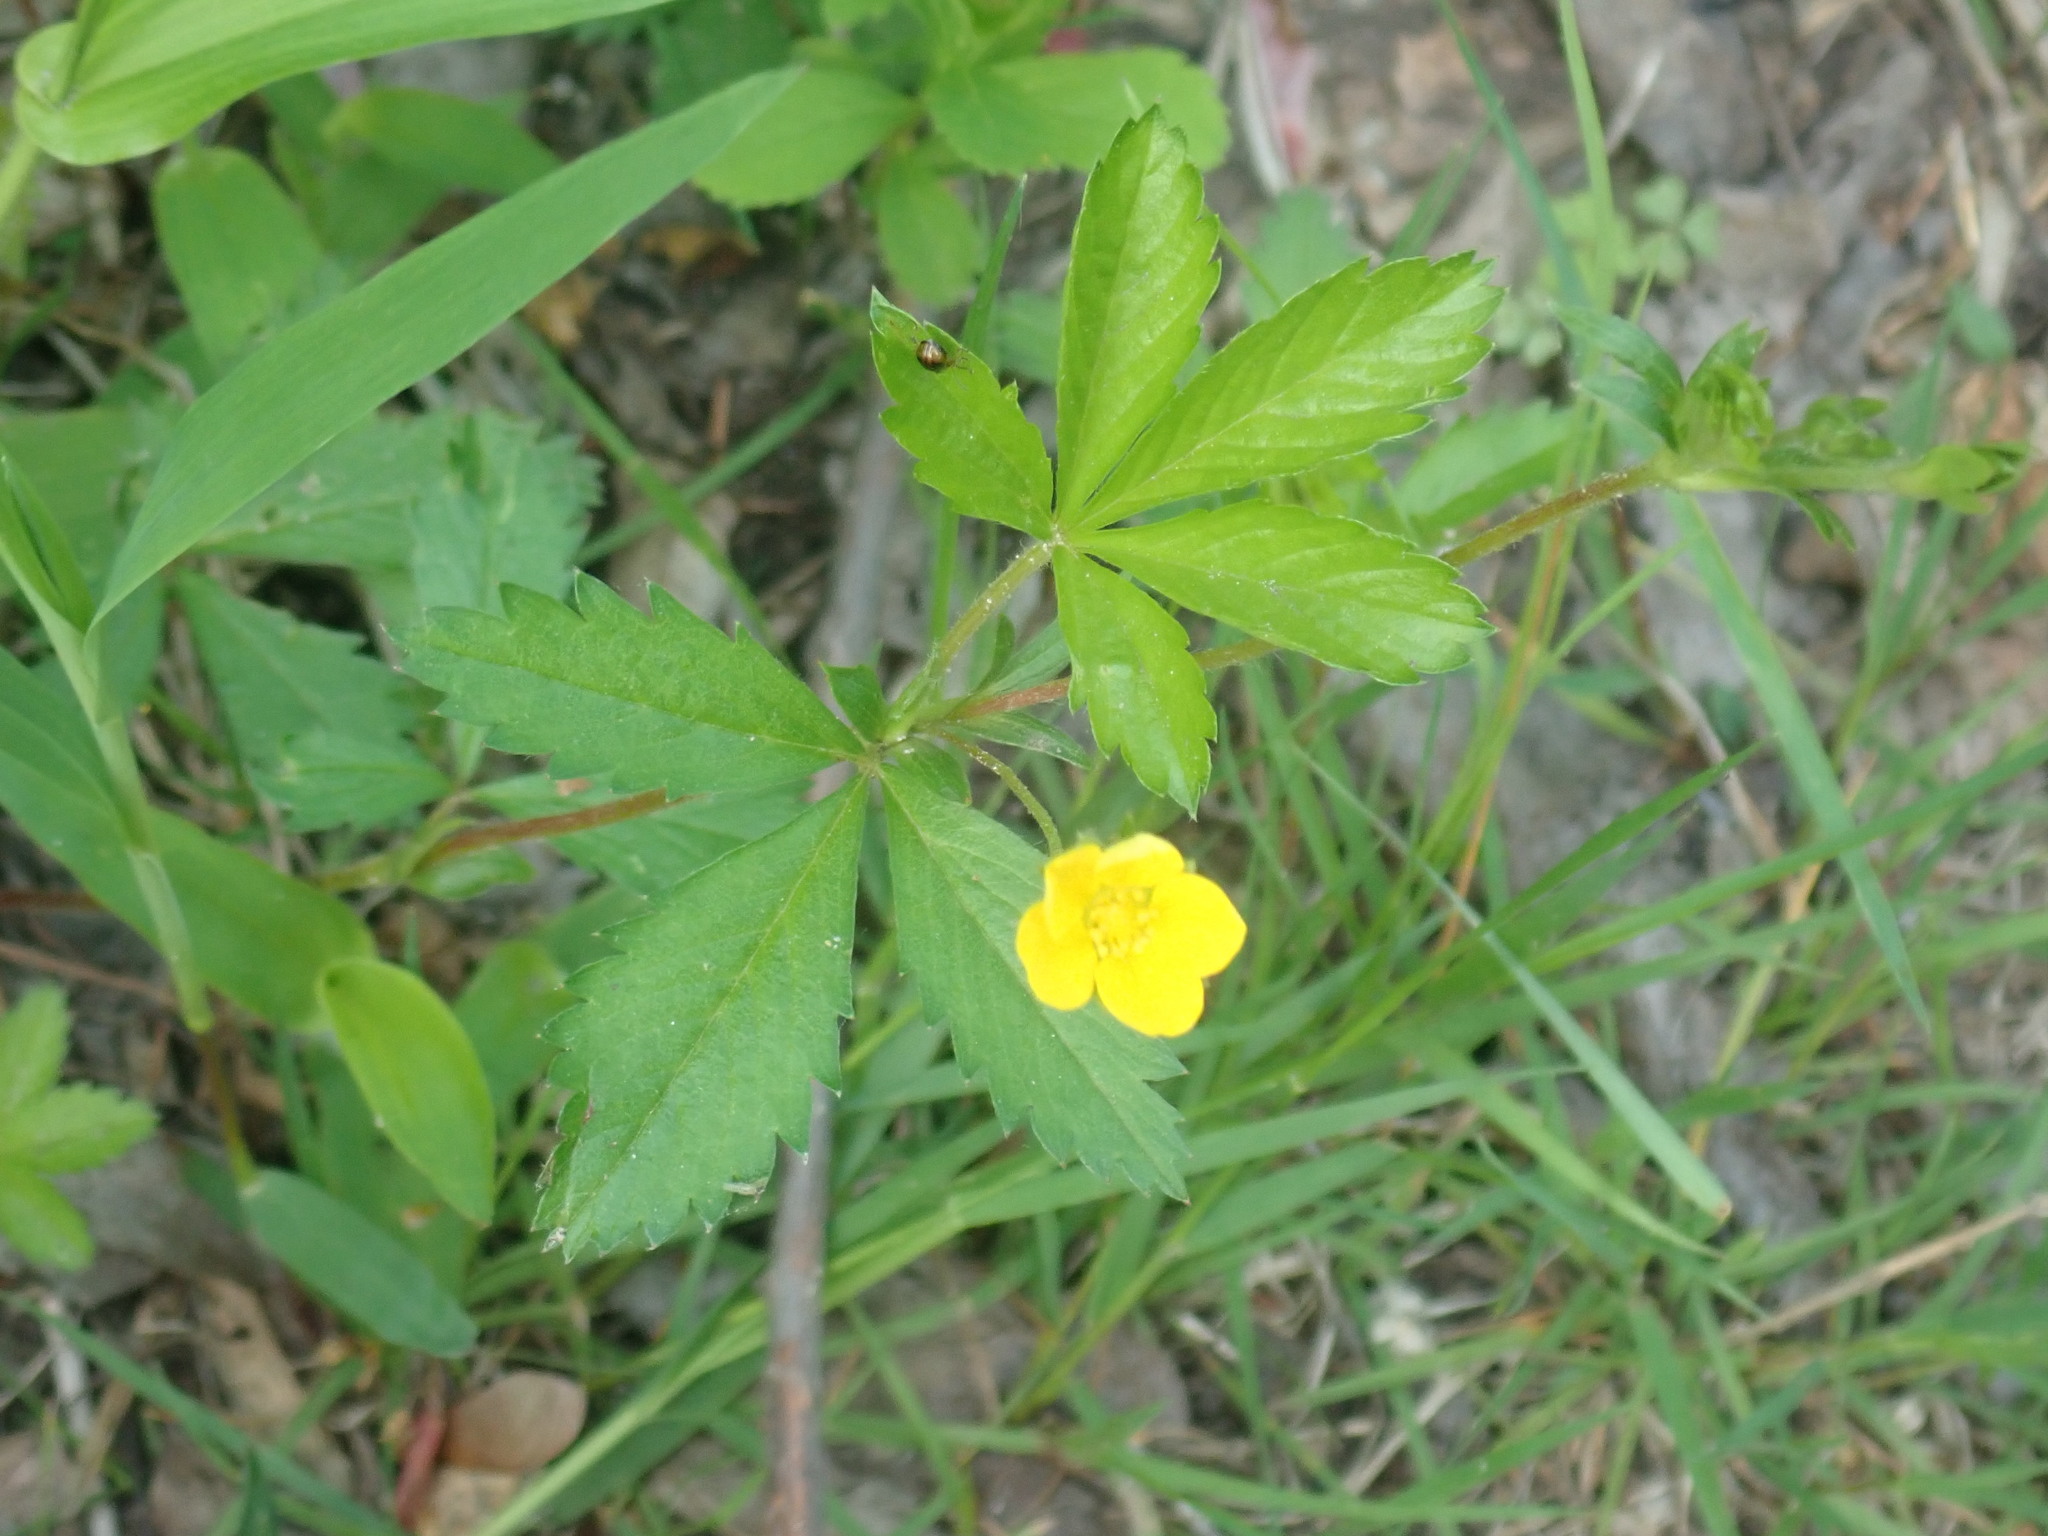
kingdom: Plantae
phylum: Tracheophyta
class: Magnoliopsida
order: Rosales
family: Rosaceae
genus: Potentilla
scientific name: Potentilla simplex
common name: Old field cinquefoil
